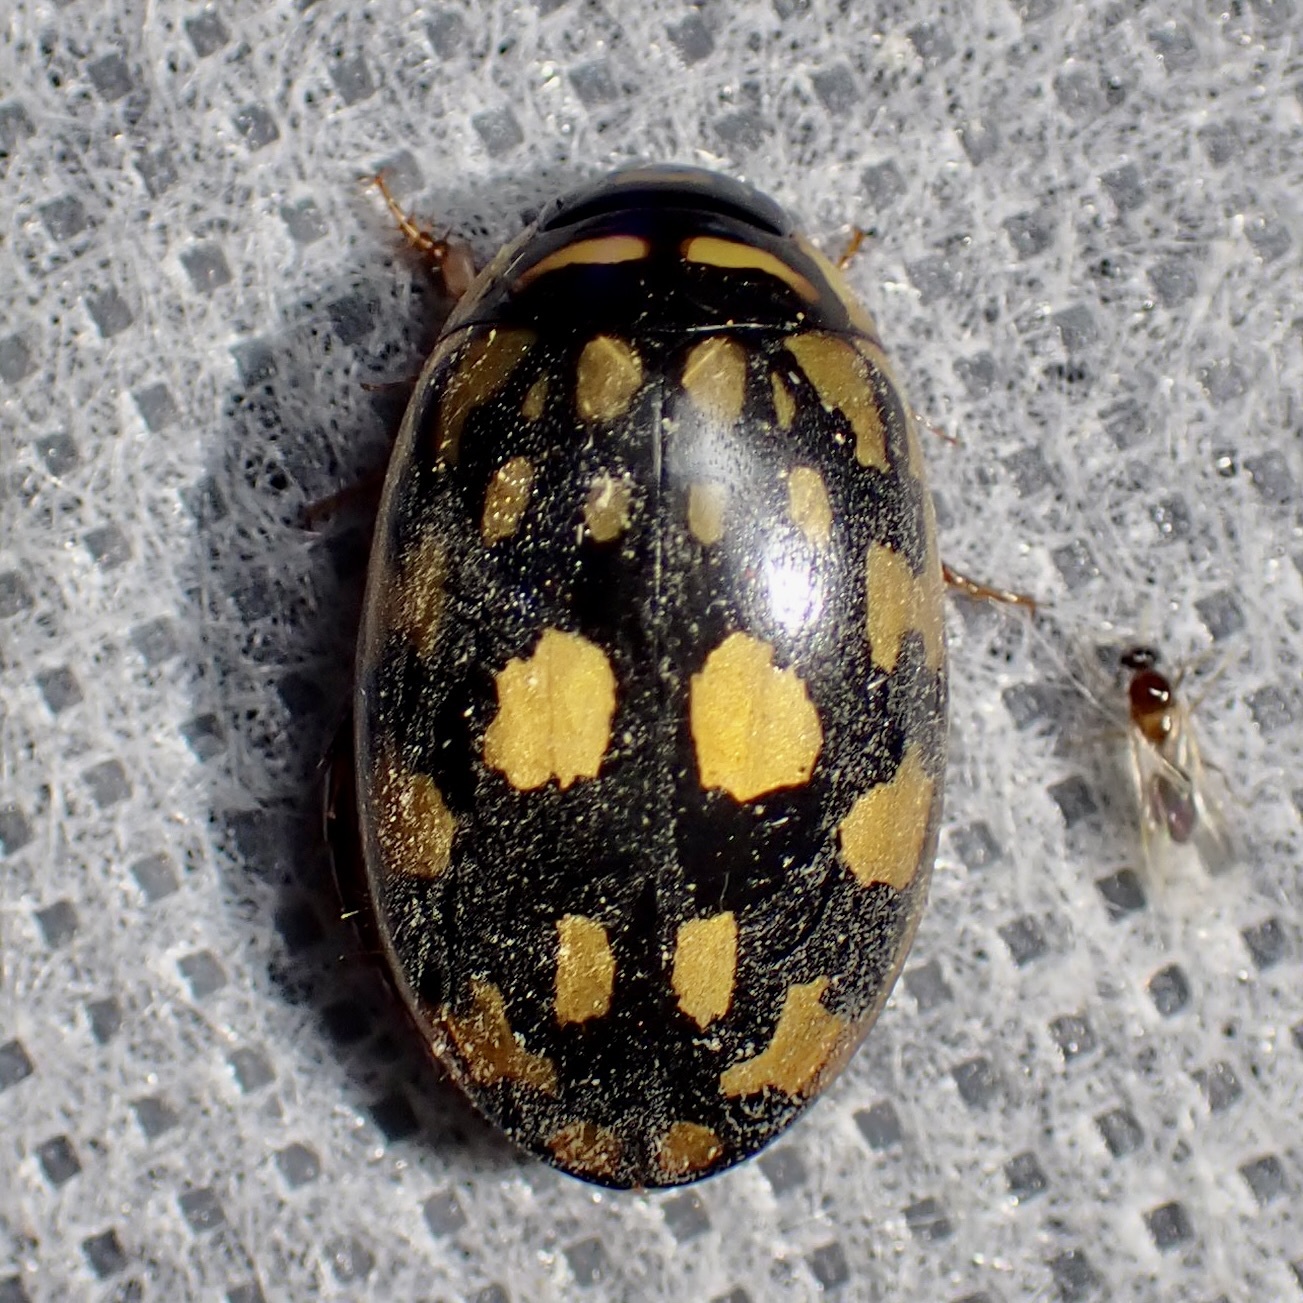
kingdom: Animalia
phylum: Arthropoda
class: Insecta
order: Coleoptera
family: Dytiscidae
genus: Thermonectus
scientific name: Thermonectus marmoratus
